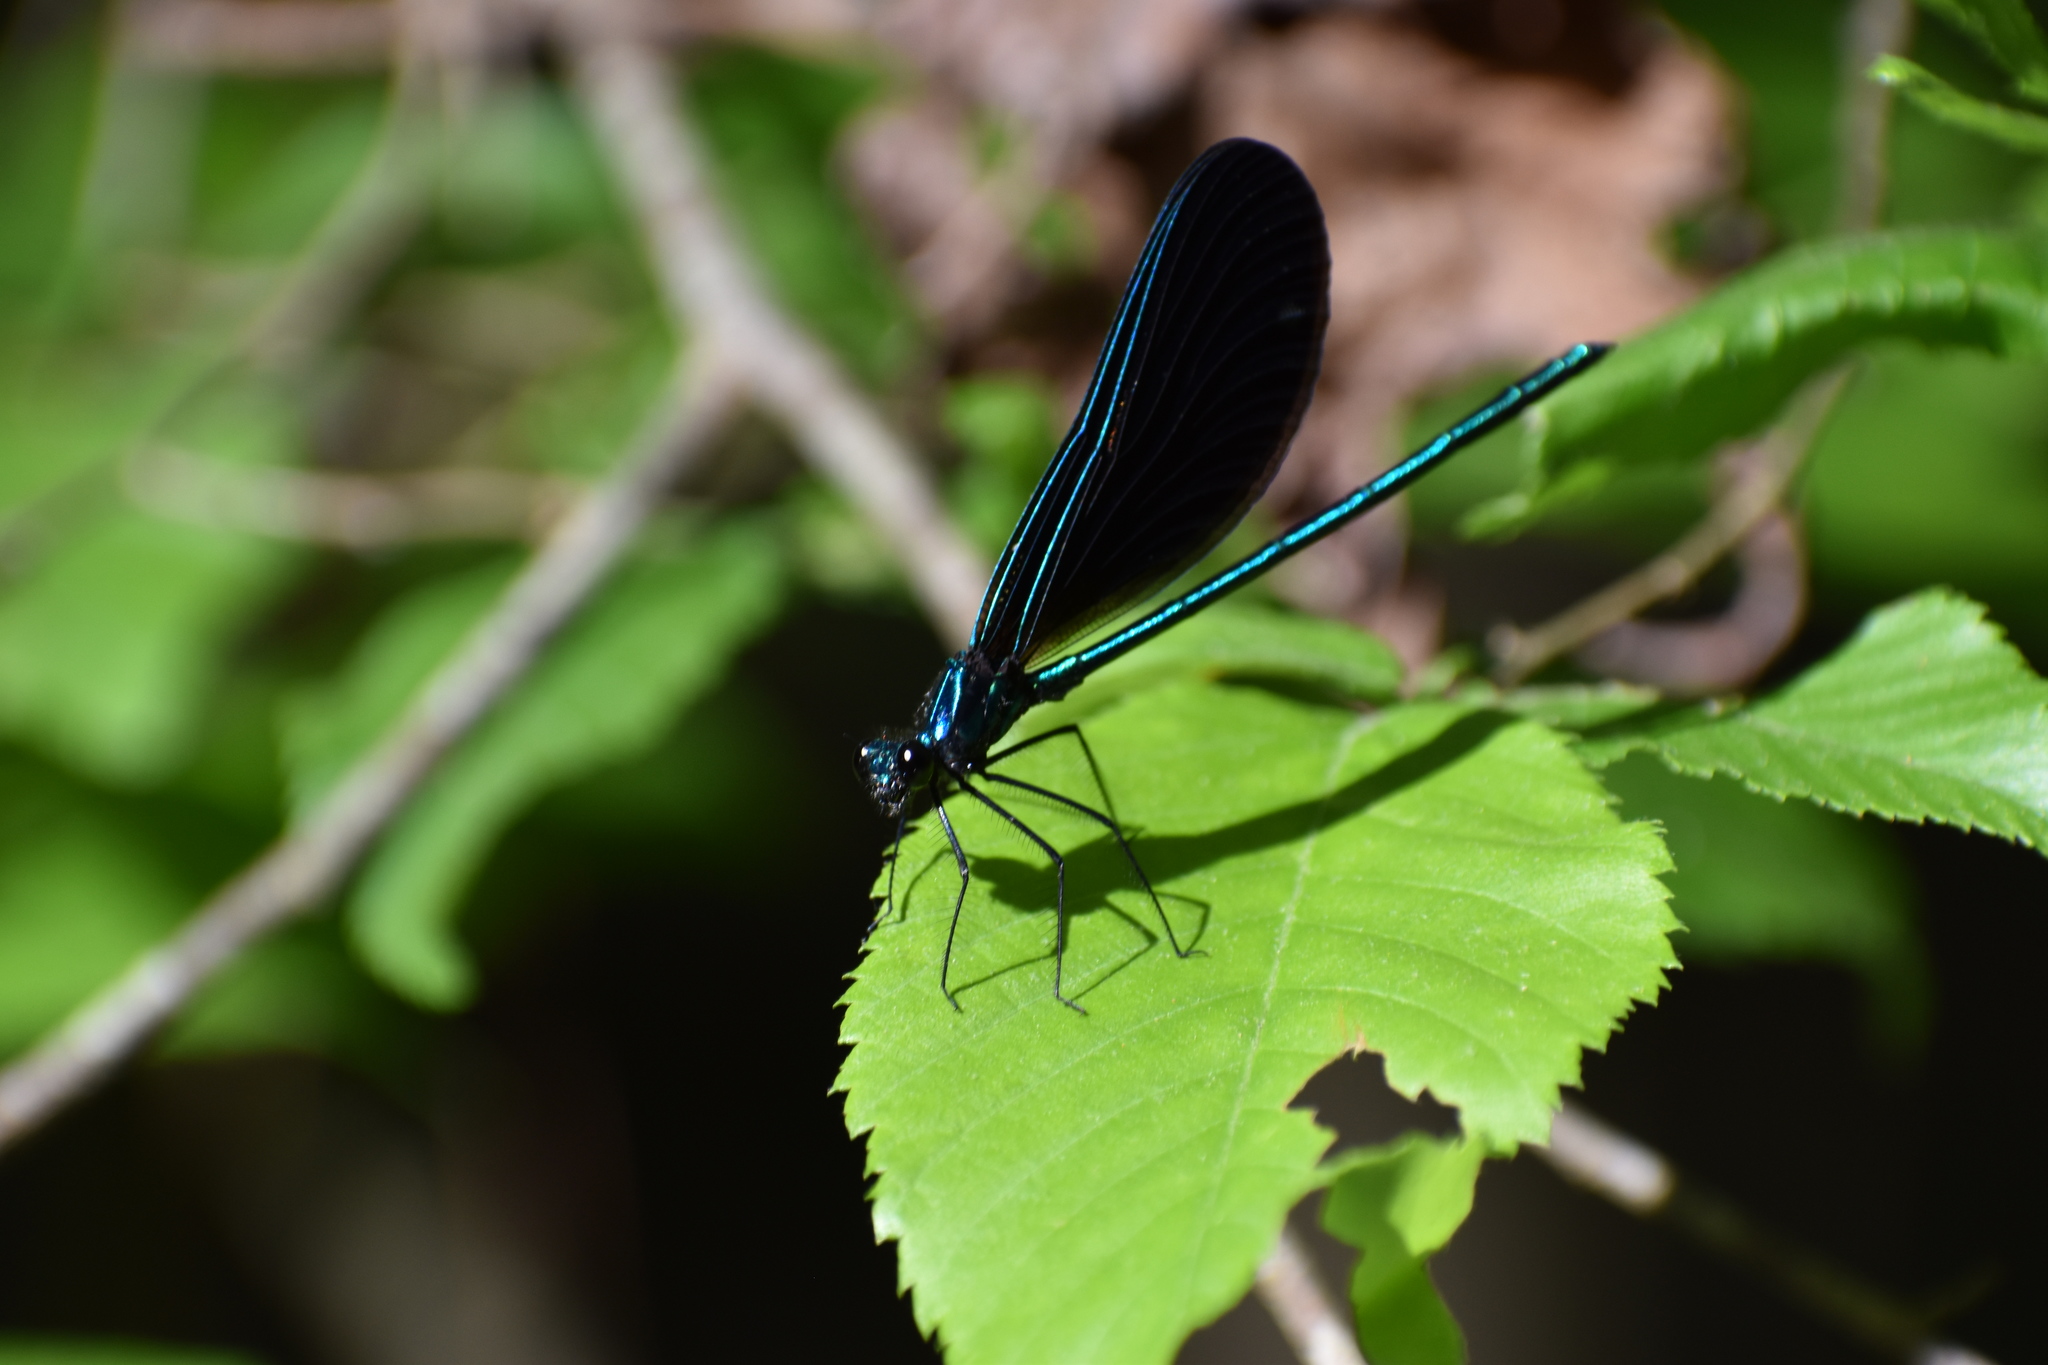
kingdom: Animalia
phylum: Arthropoda
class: Insecta
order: Odonata
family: Calopterygidae
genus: Calopteryx
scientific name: Calopteryx maculata
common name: Ebony jewelwing
